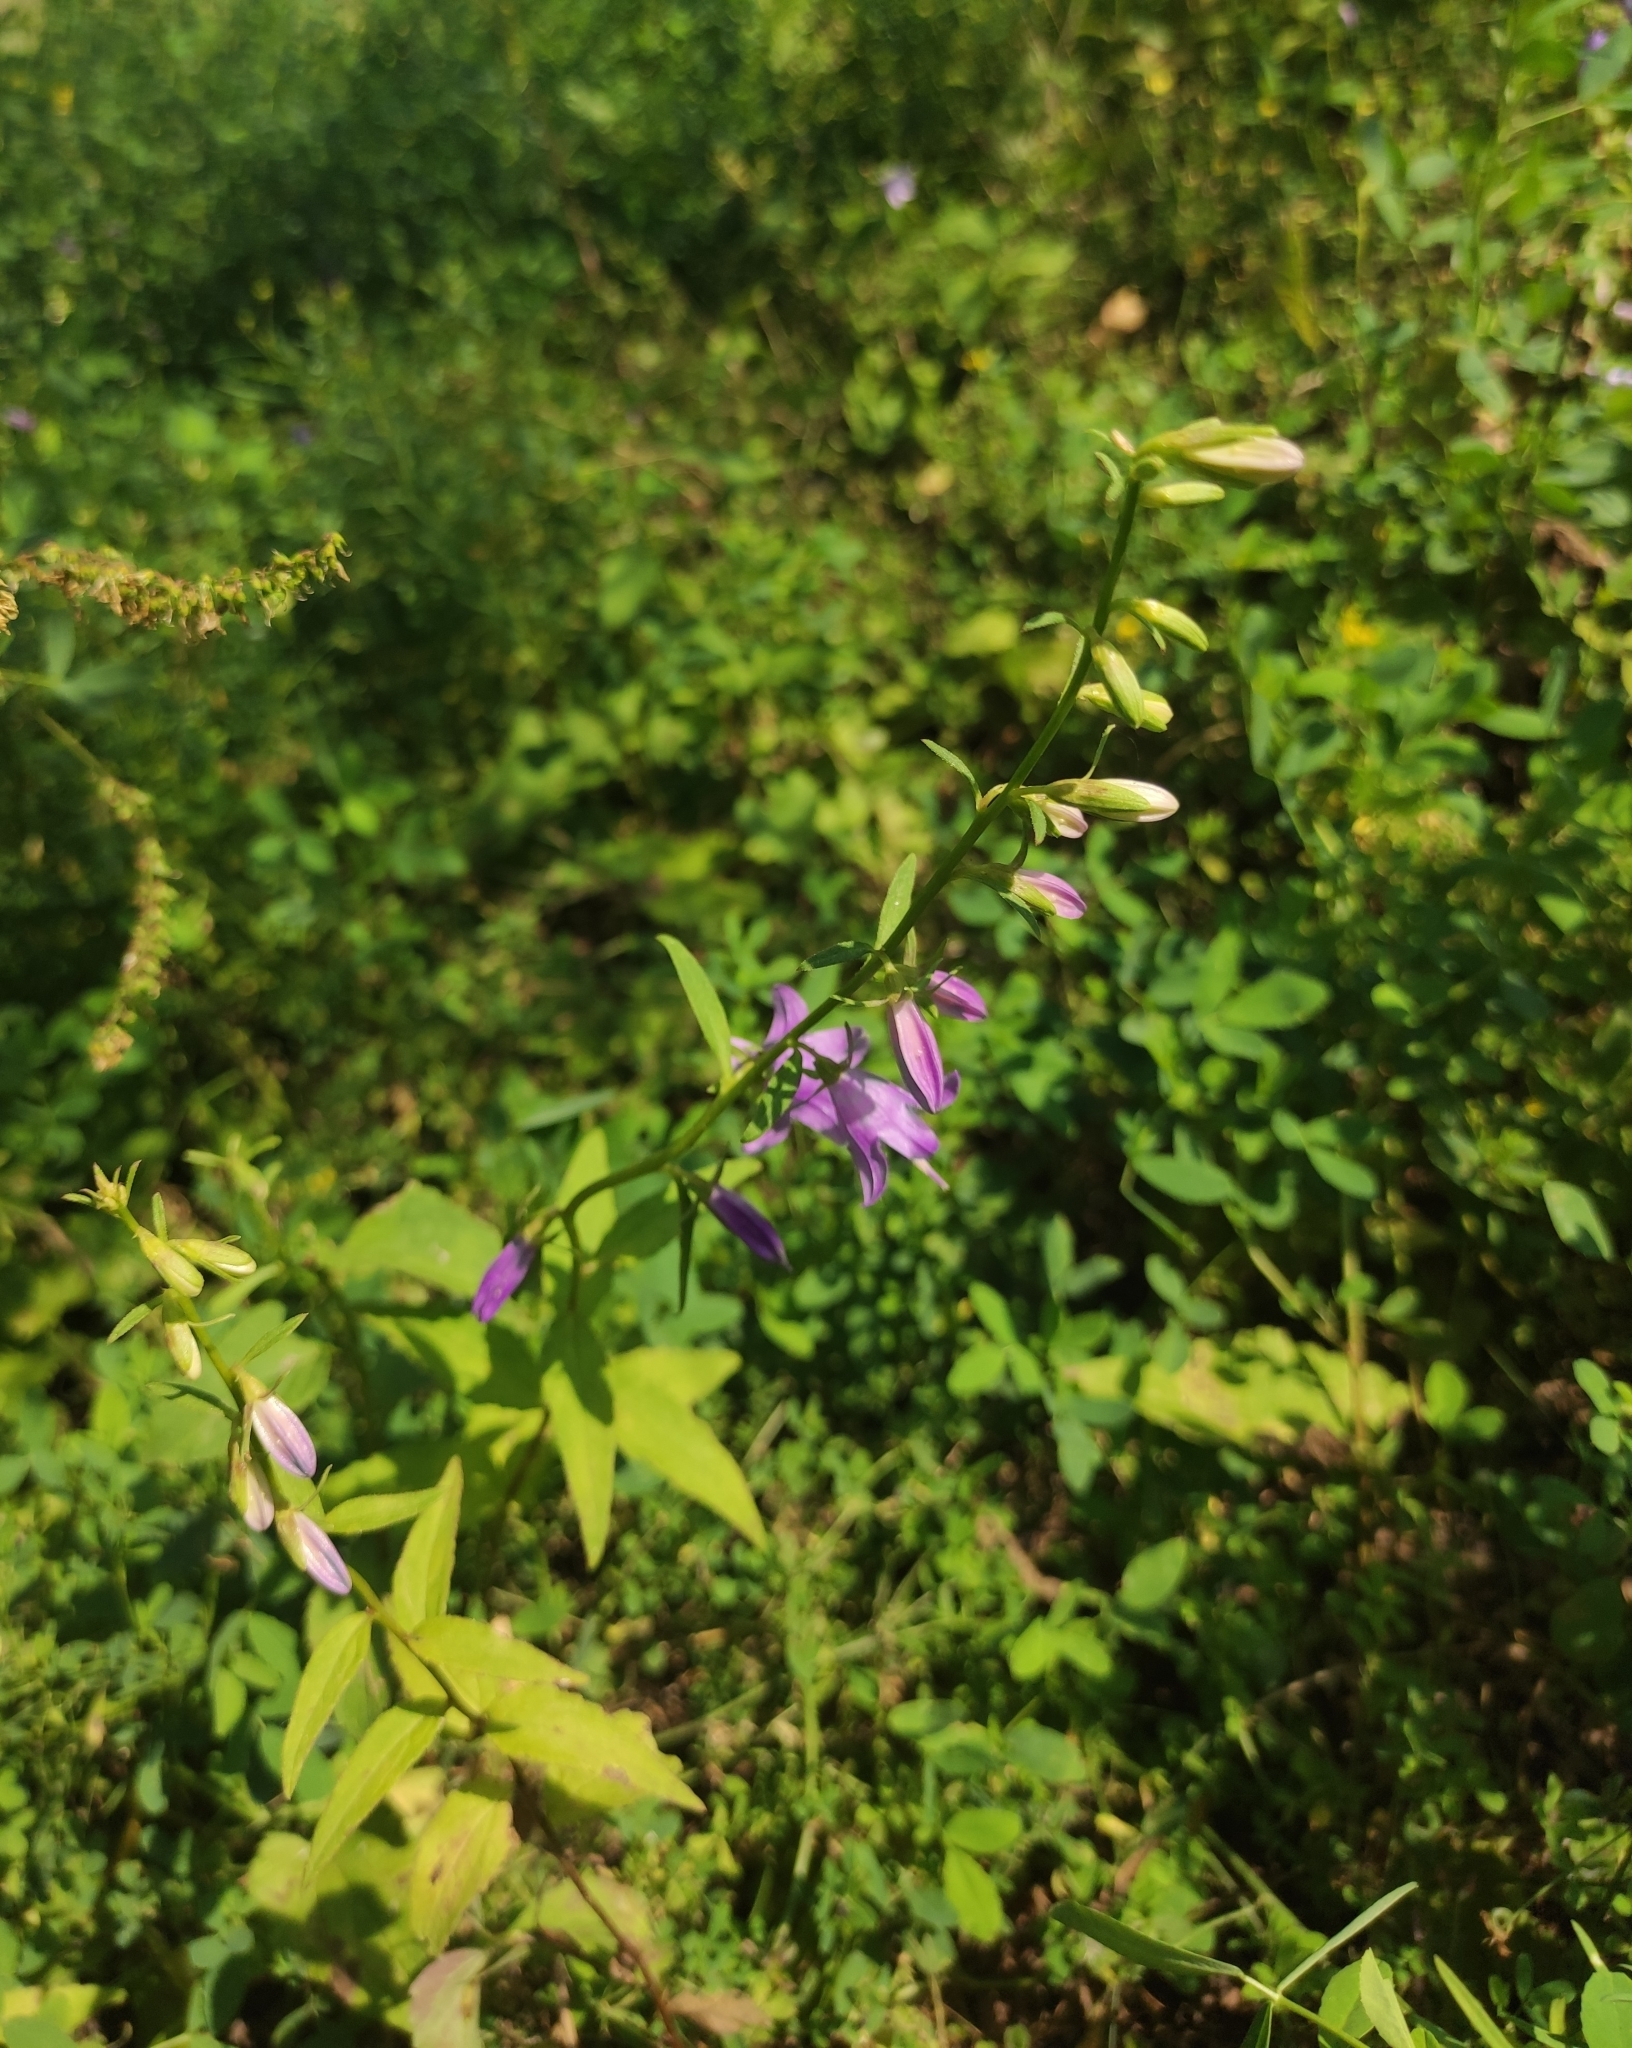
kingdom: Plantae
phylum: Tracheophyta
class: Magnoliopsida
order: Asterales
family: Campanulaceae
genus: Campanula
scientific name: Campanula rapunculoides
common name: Creeping bellflower
